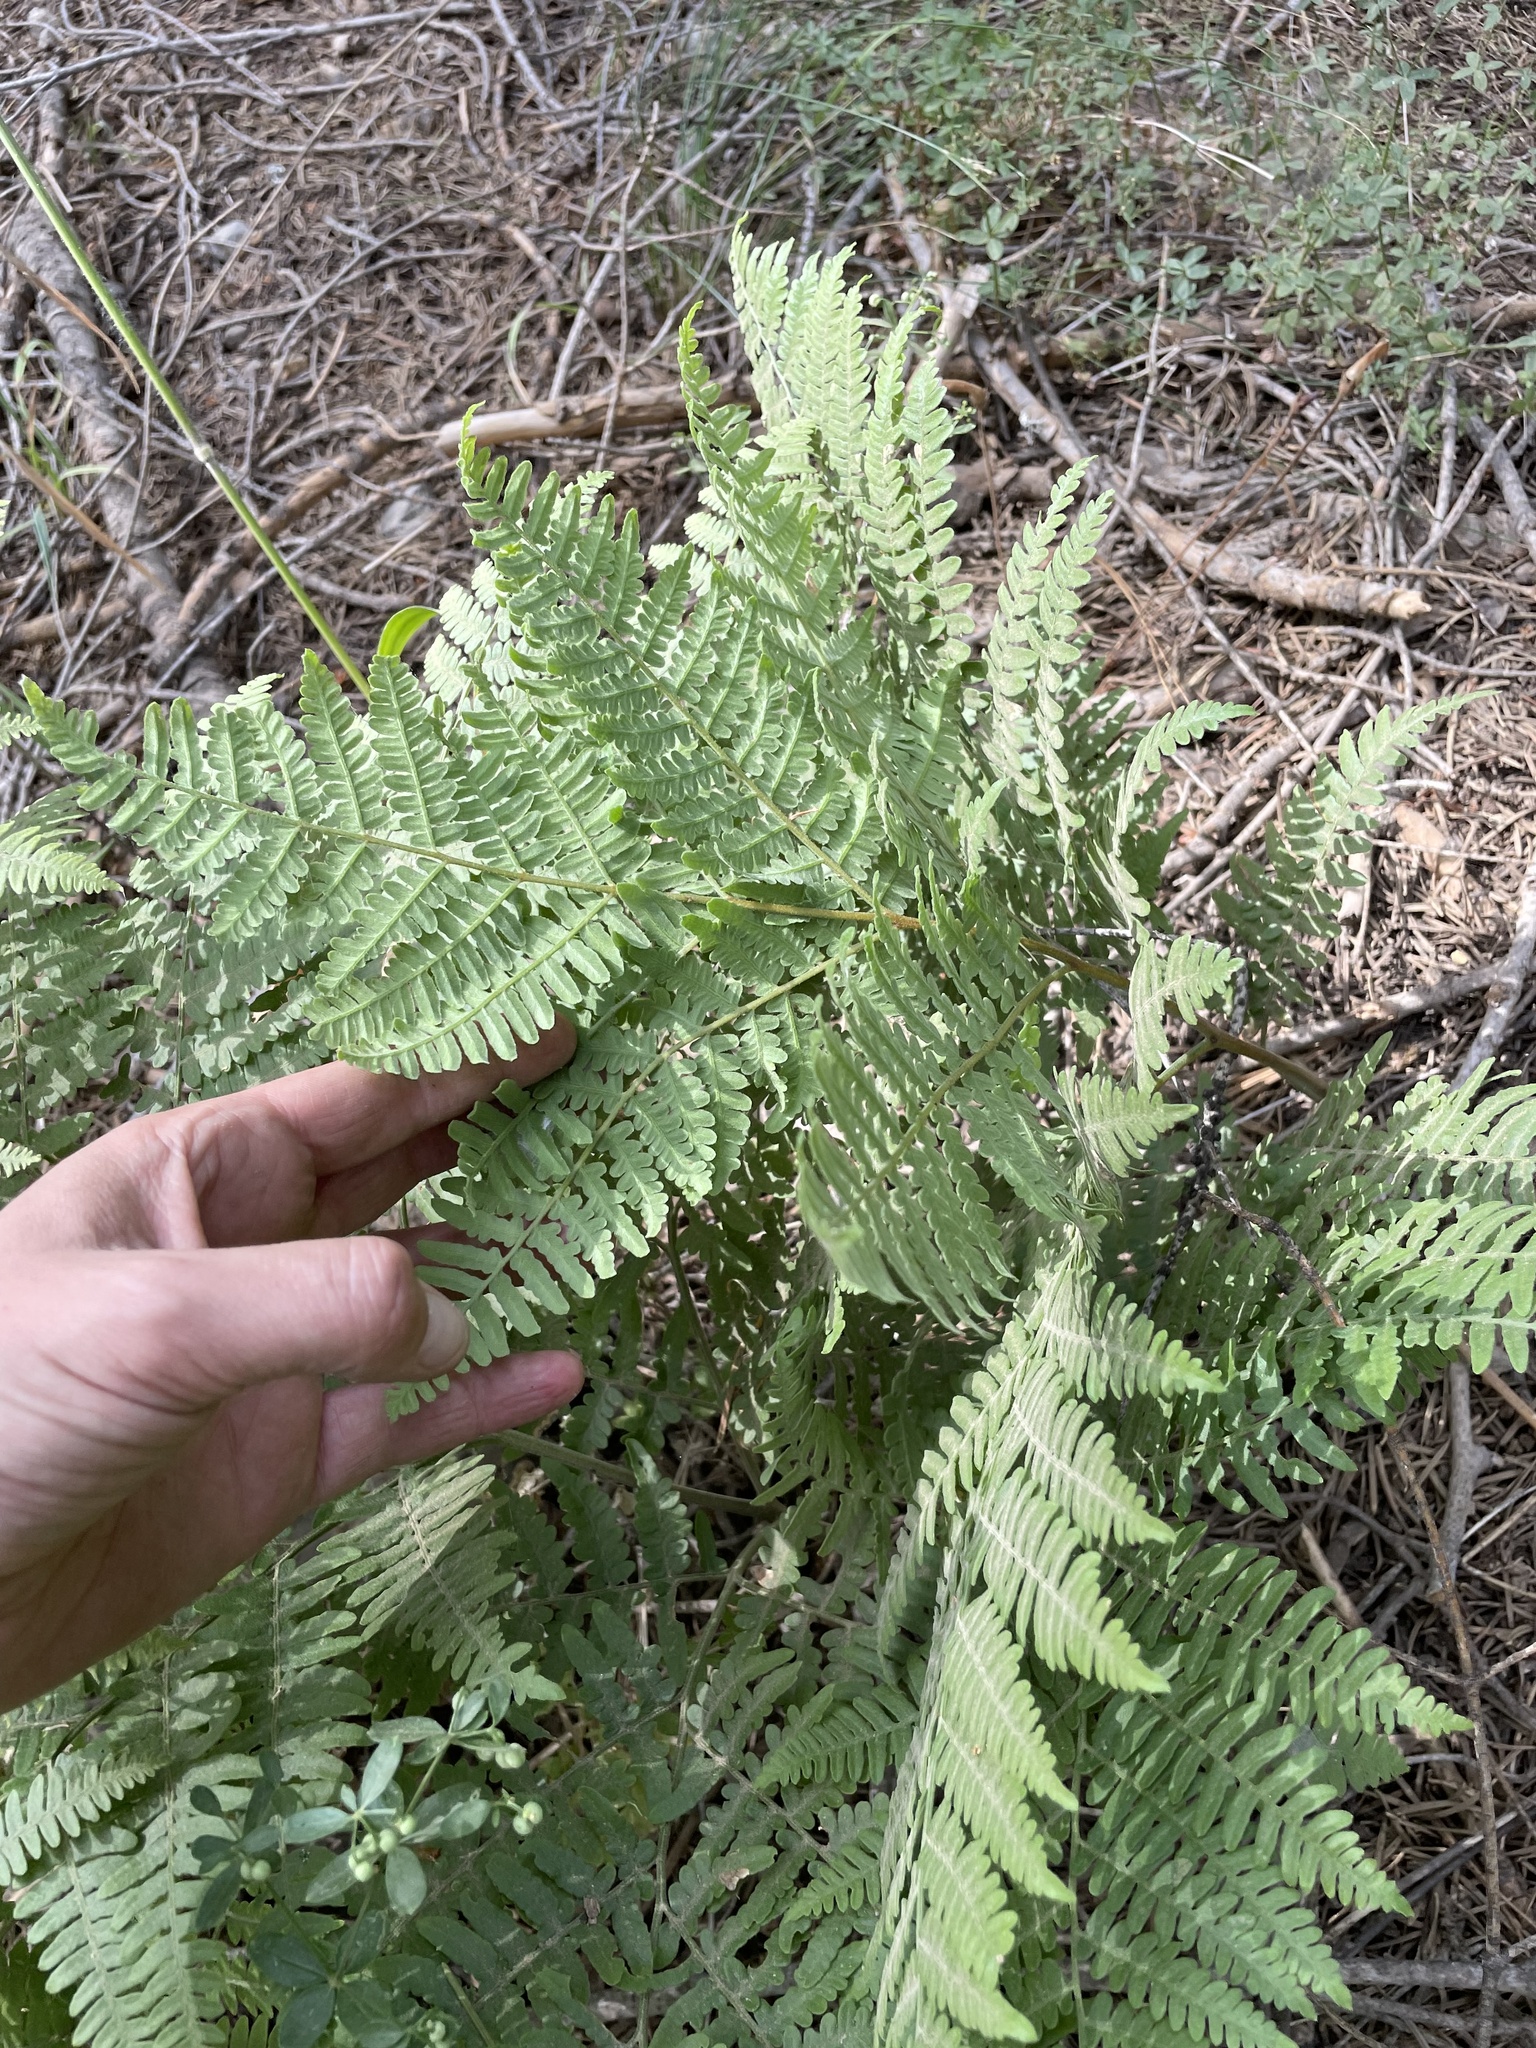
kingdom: Plantae
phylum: Tracheophyta
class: Polypodiopsida
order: Polypodiales
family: Dennstaedtiaceae
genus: Pteridium
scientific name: Pteridium aquilinum
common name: Bracken
